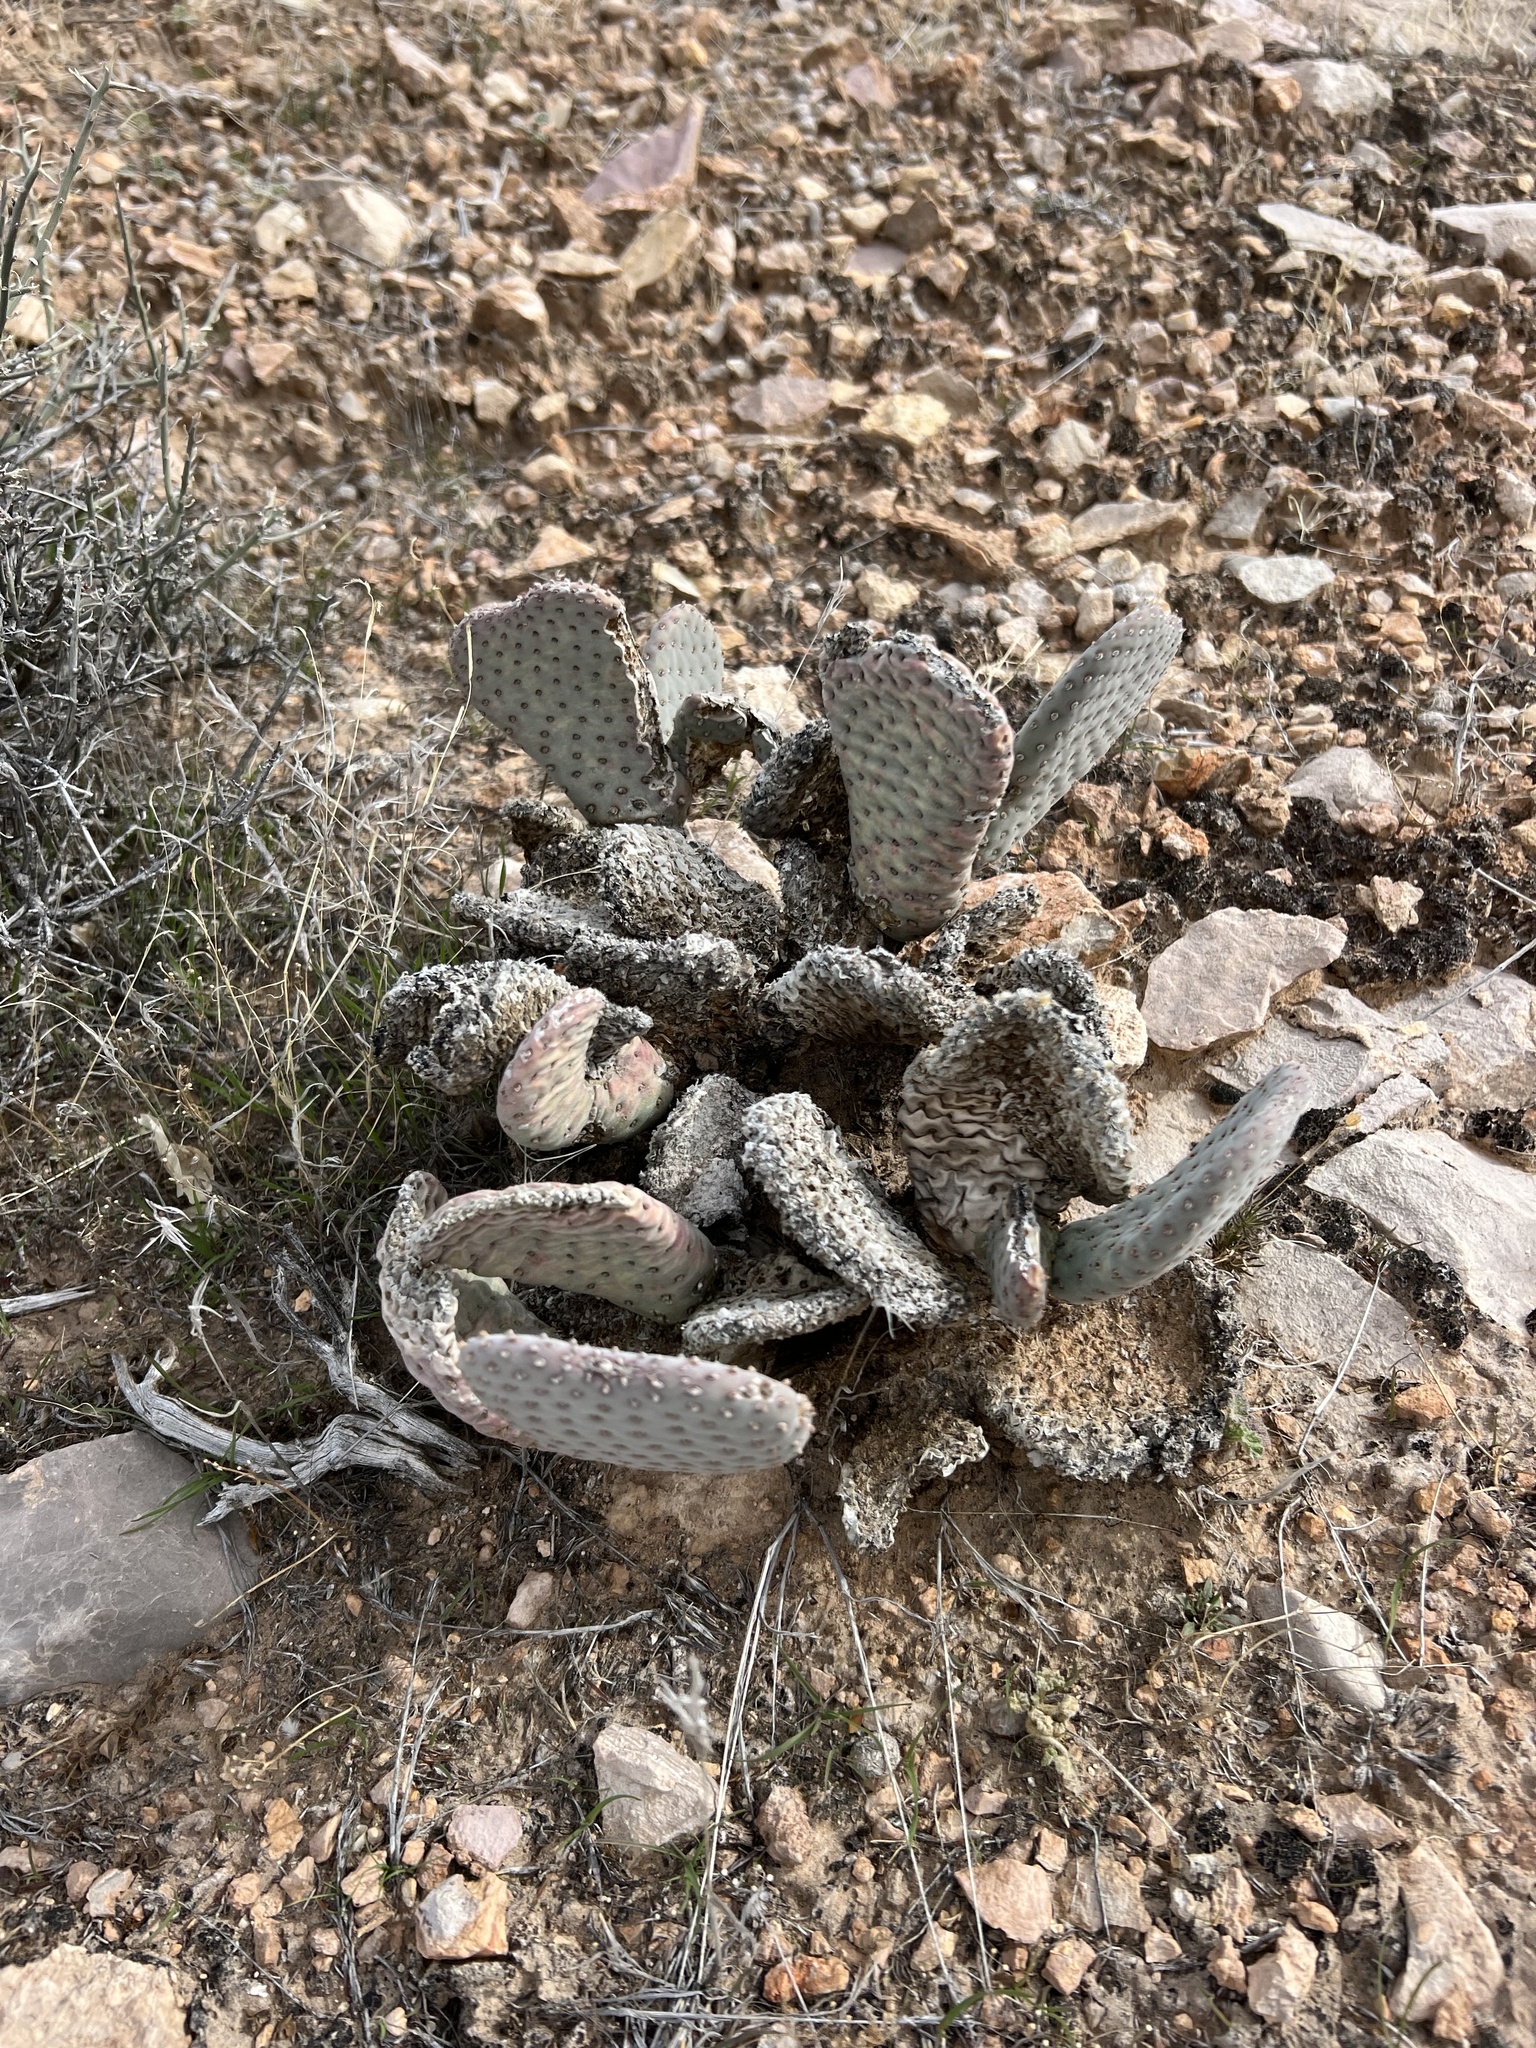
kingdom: Plantae
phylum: Tracheophyta
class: Magnoliopsida
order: Caryophyllales
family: Cactaceae
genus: Opuntia
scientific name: Opuntia basilaris
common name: Beavertail prickly-pear
